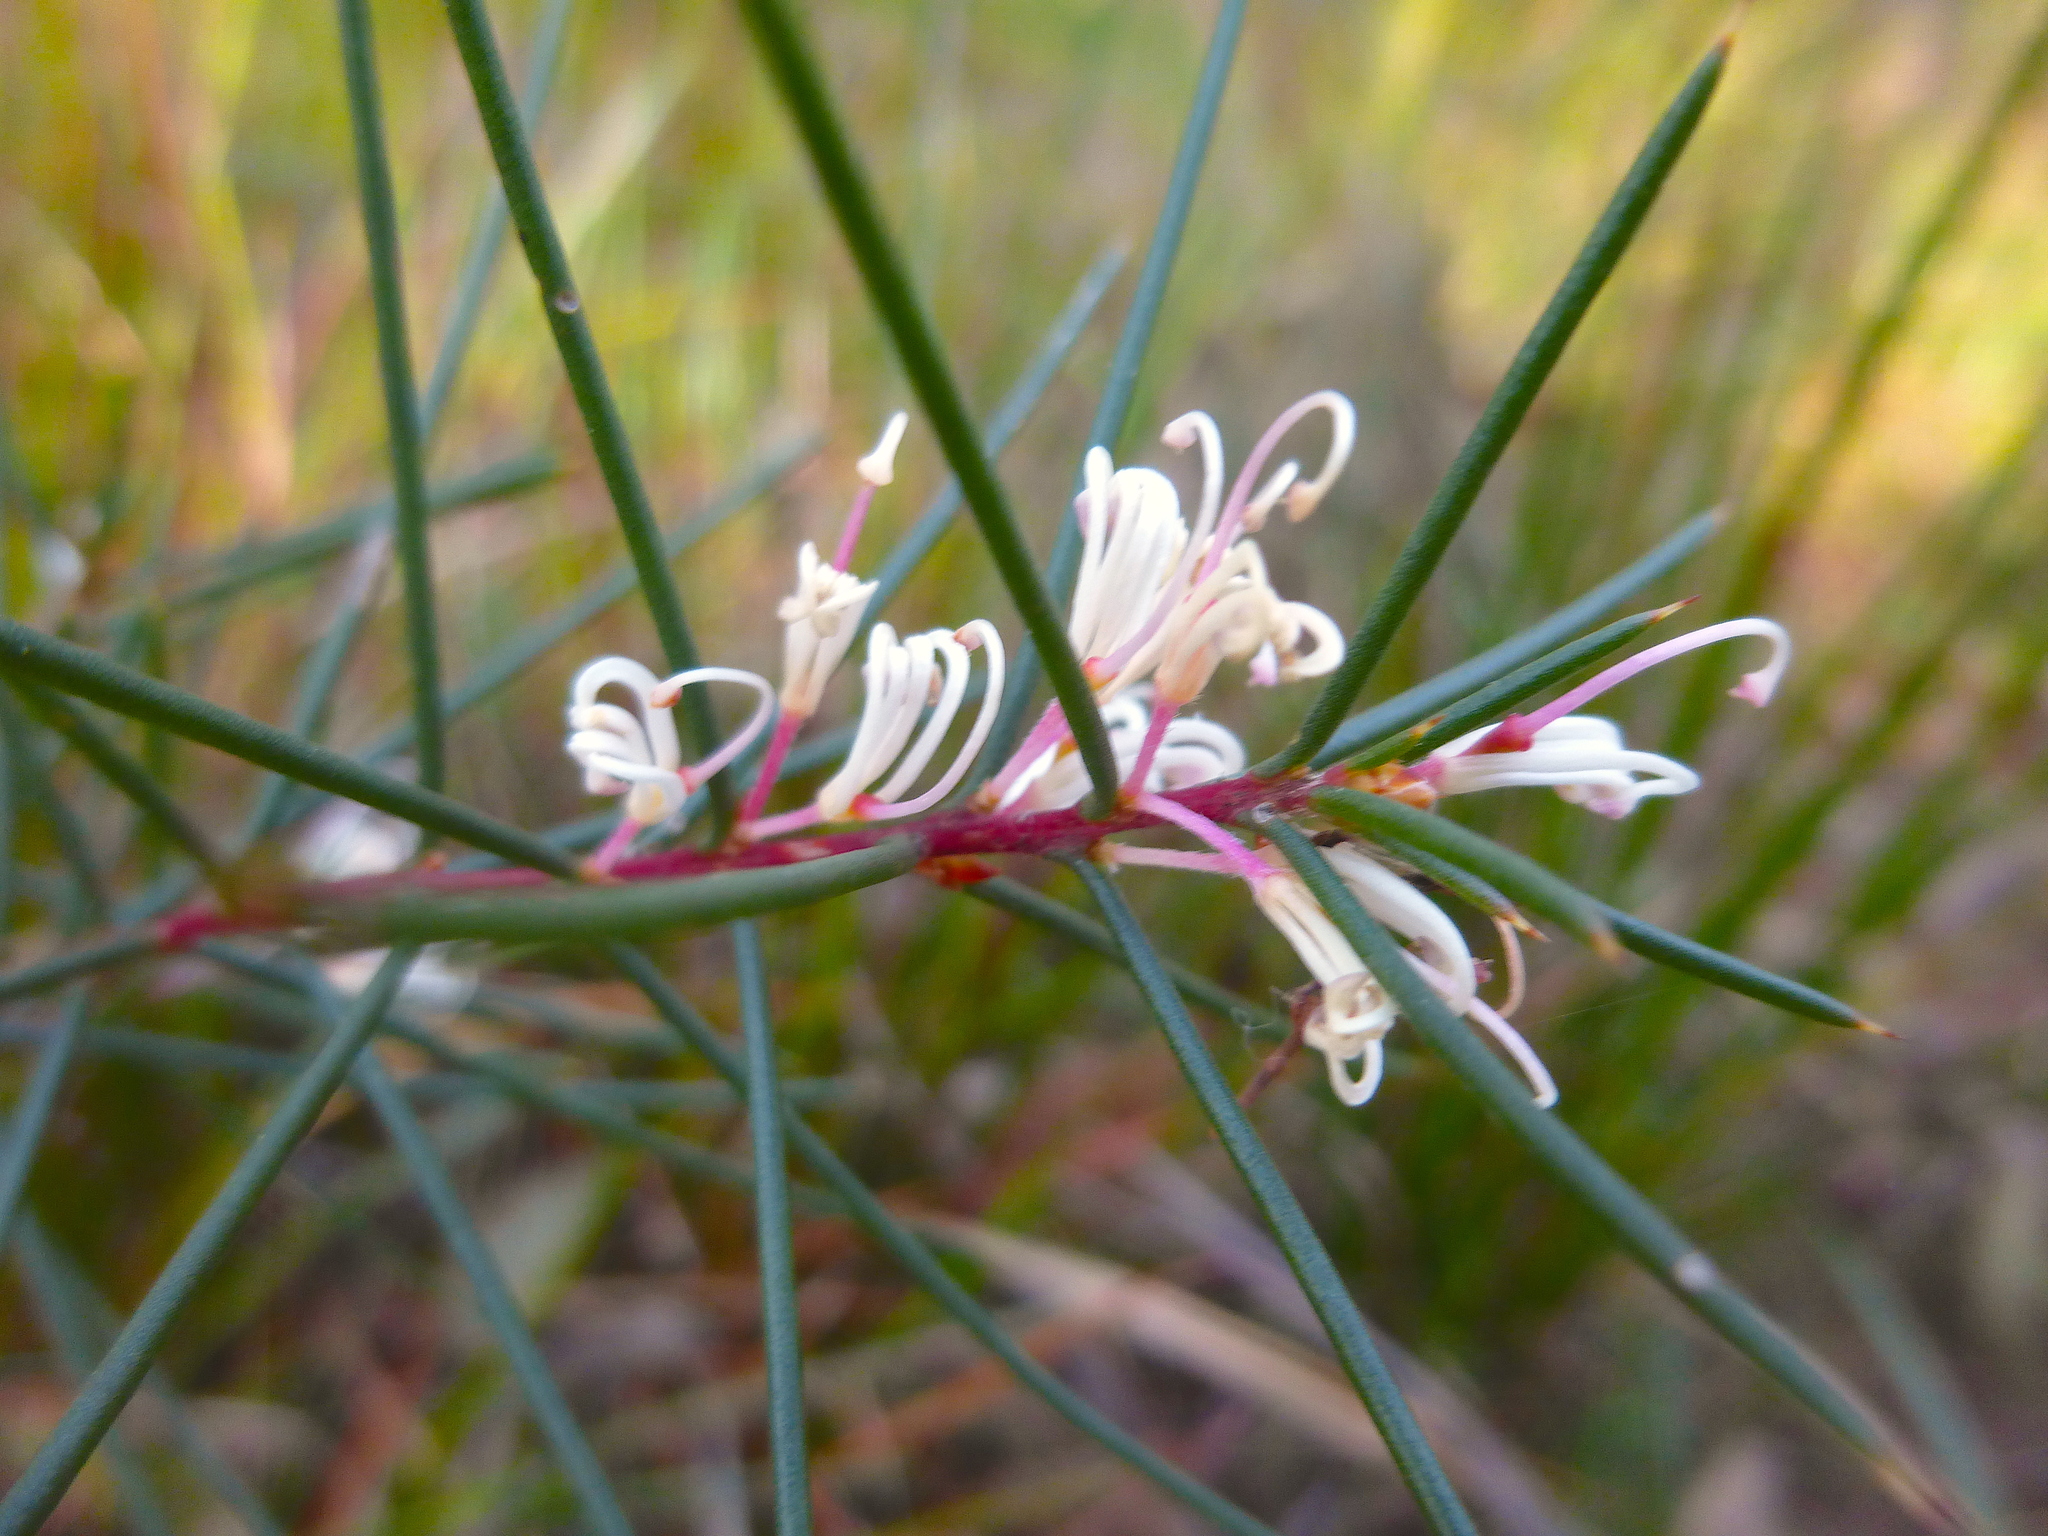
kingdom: Plantae
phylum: Tracheophyta
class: Magnoliopsida
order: Proteales
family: Proteaceae
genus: Hakea
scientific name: Hakea decurrens
